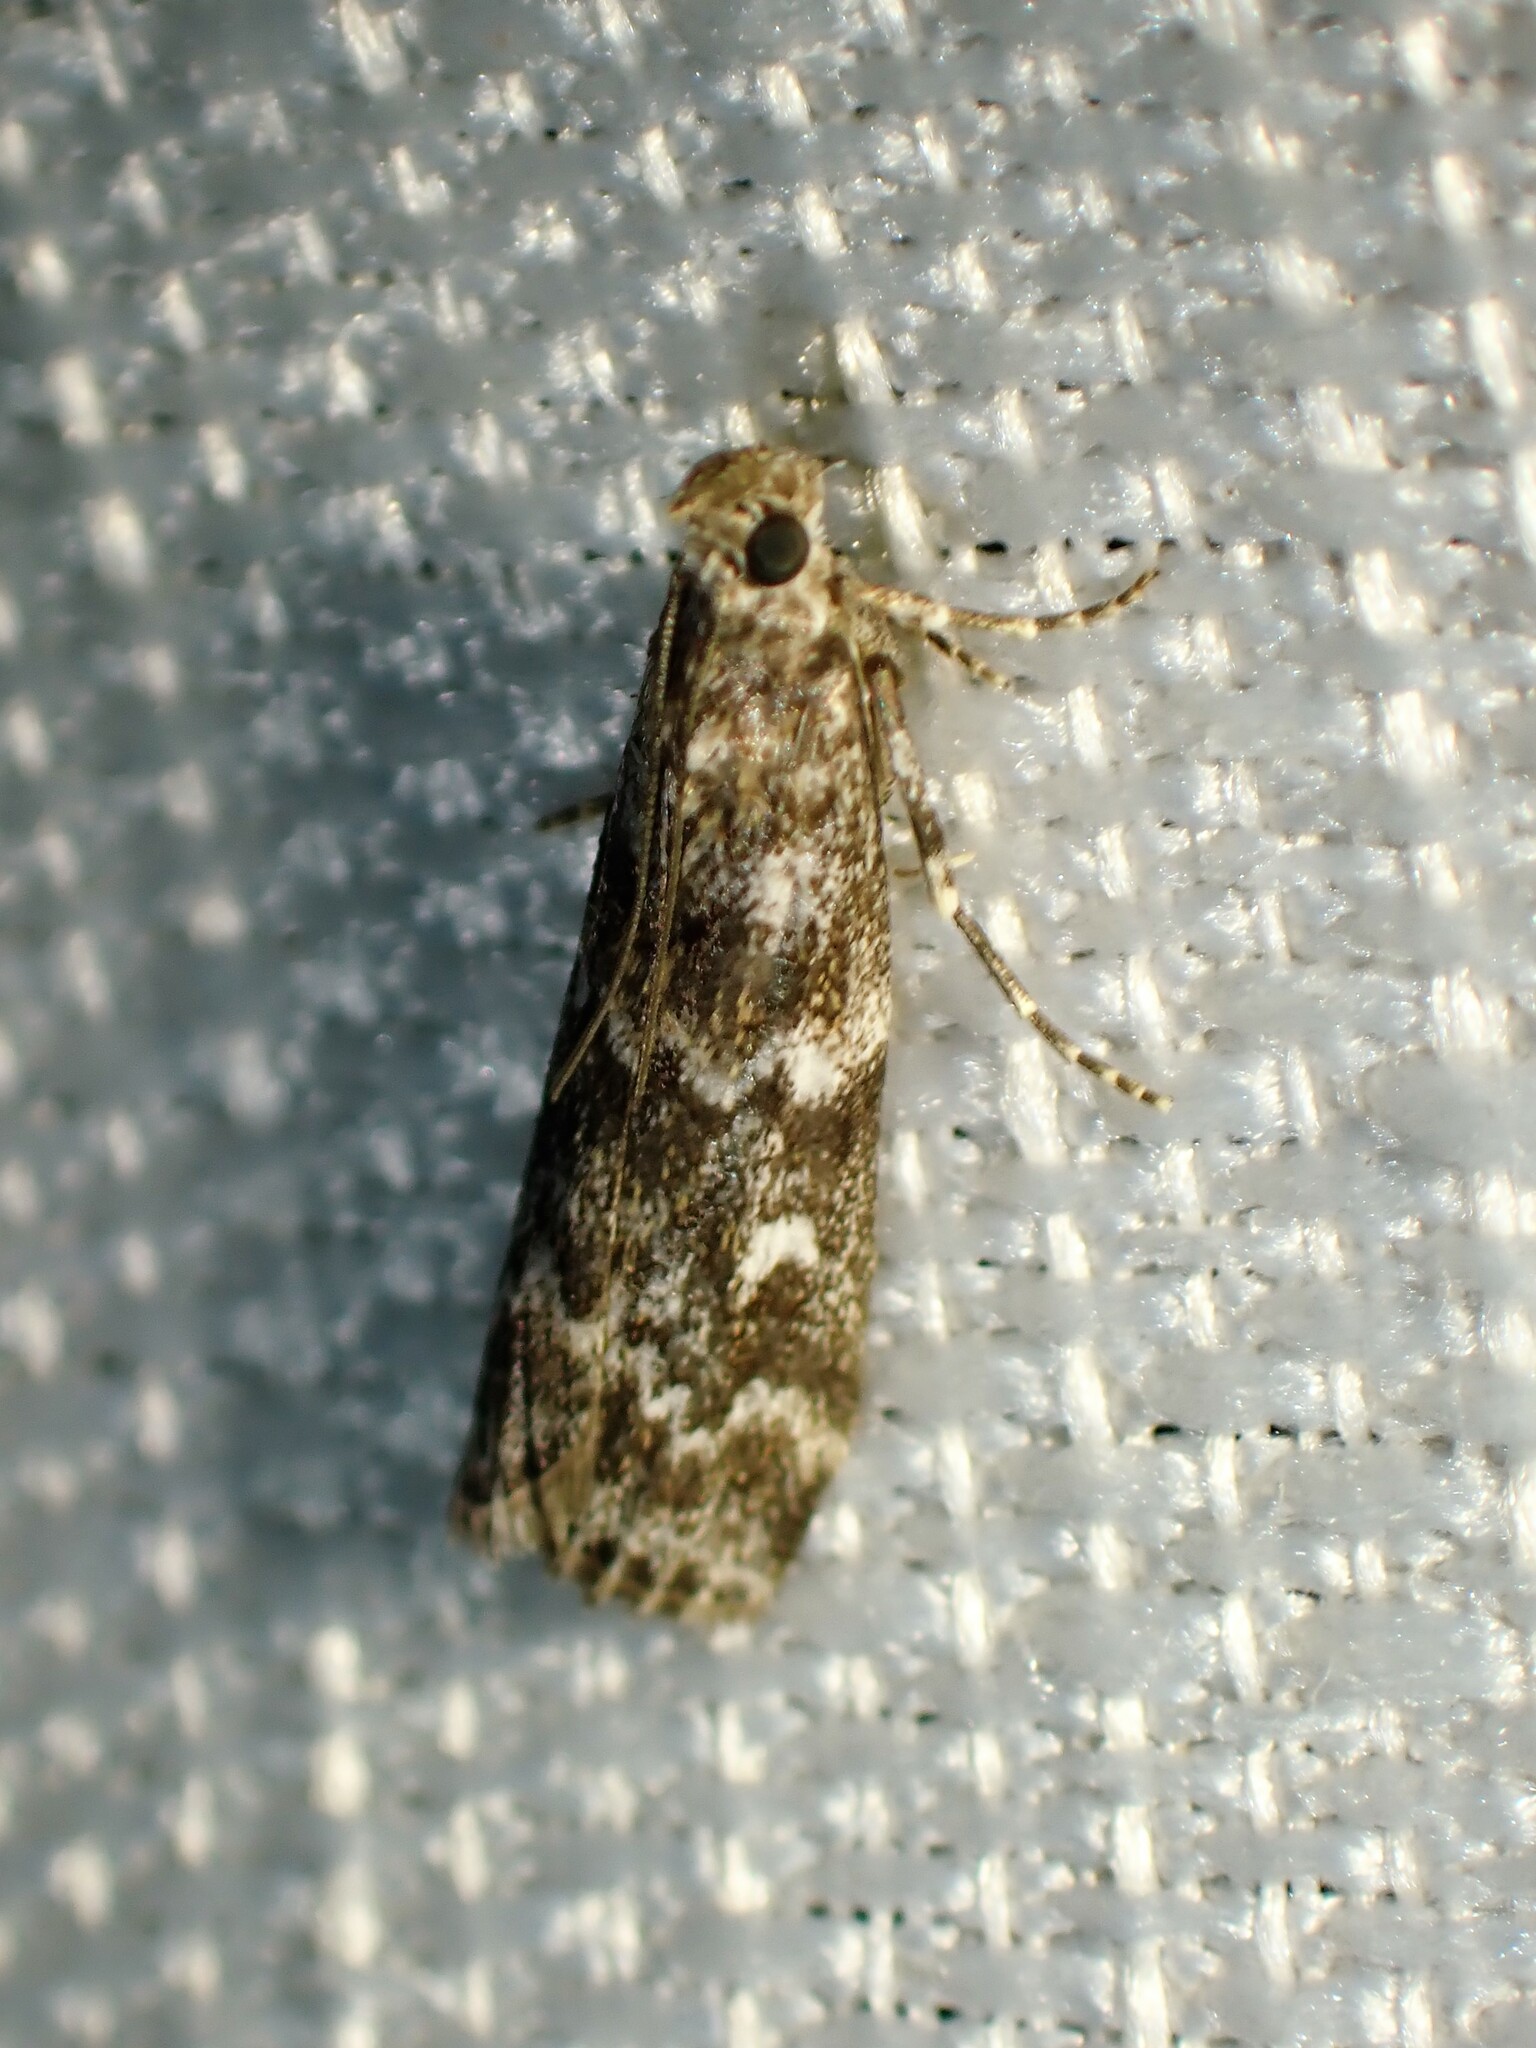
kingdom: Animalia
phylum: Arthropoda
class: Insecta
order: Lepidoptera
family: Pyralidae
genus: Dioryctria
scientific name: Dioryctria reniculelloides
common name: Spruce coneworm moth
